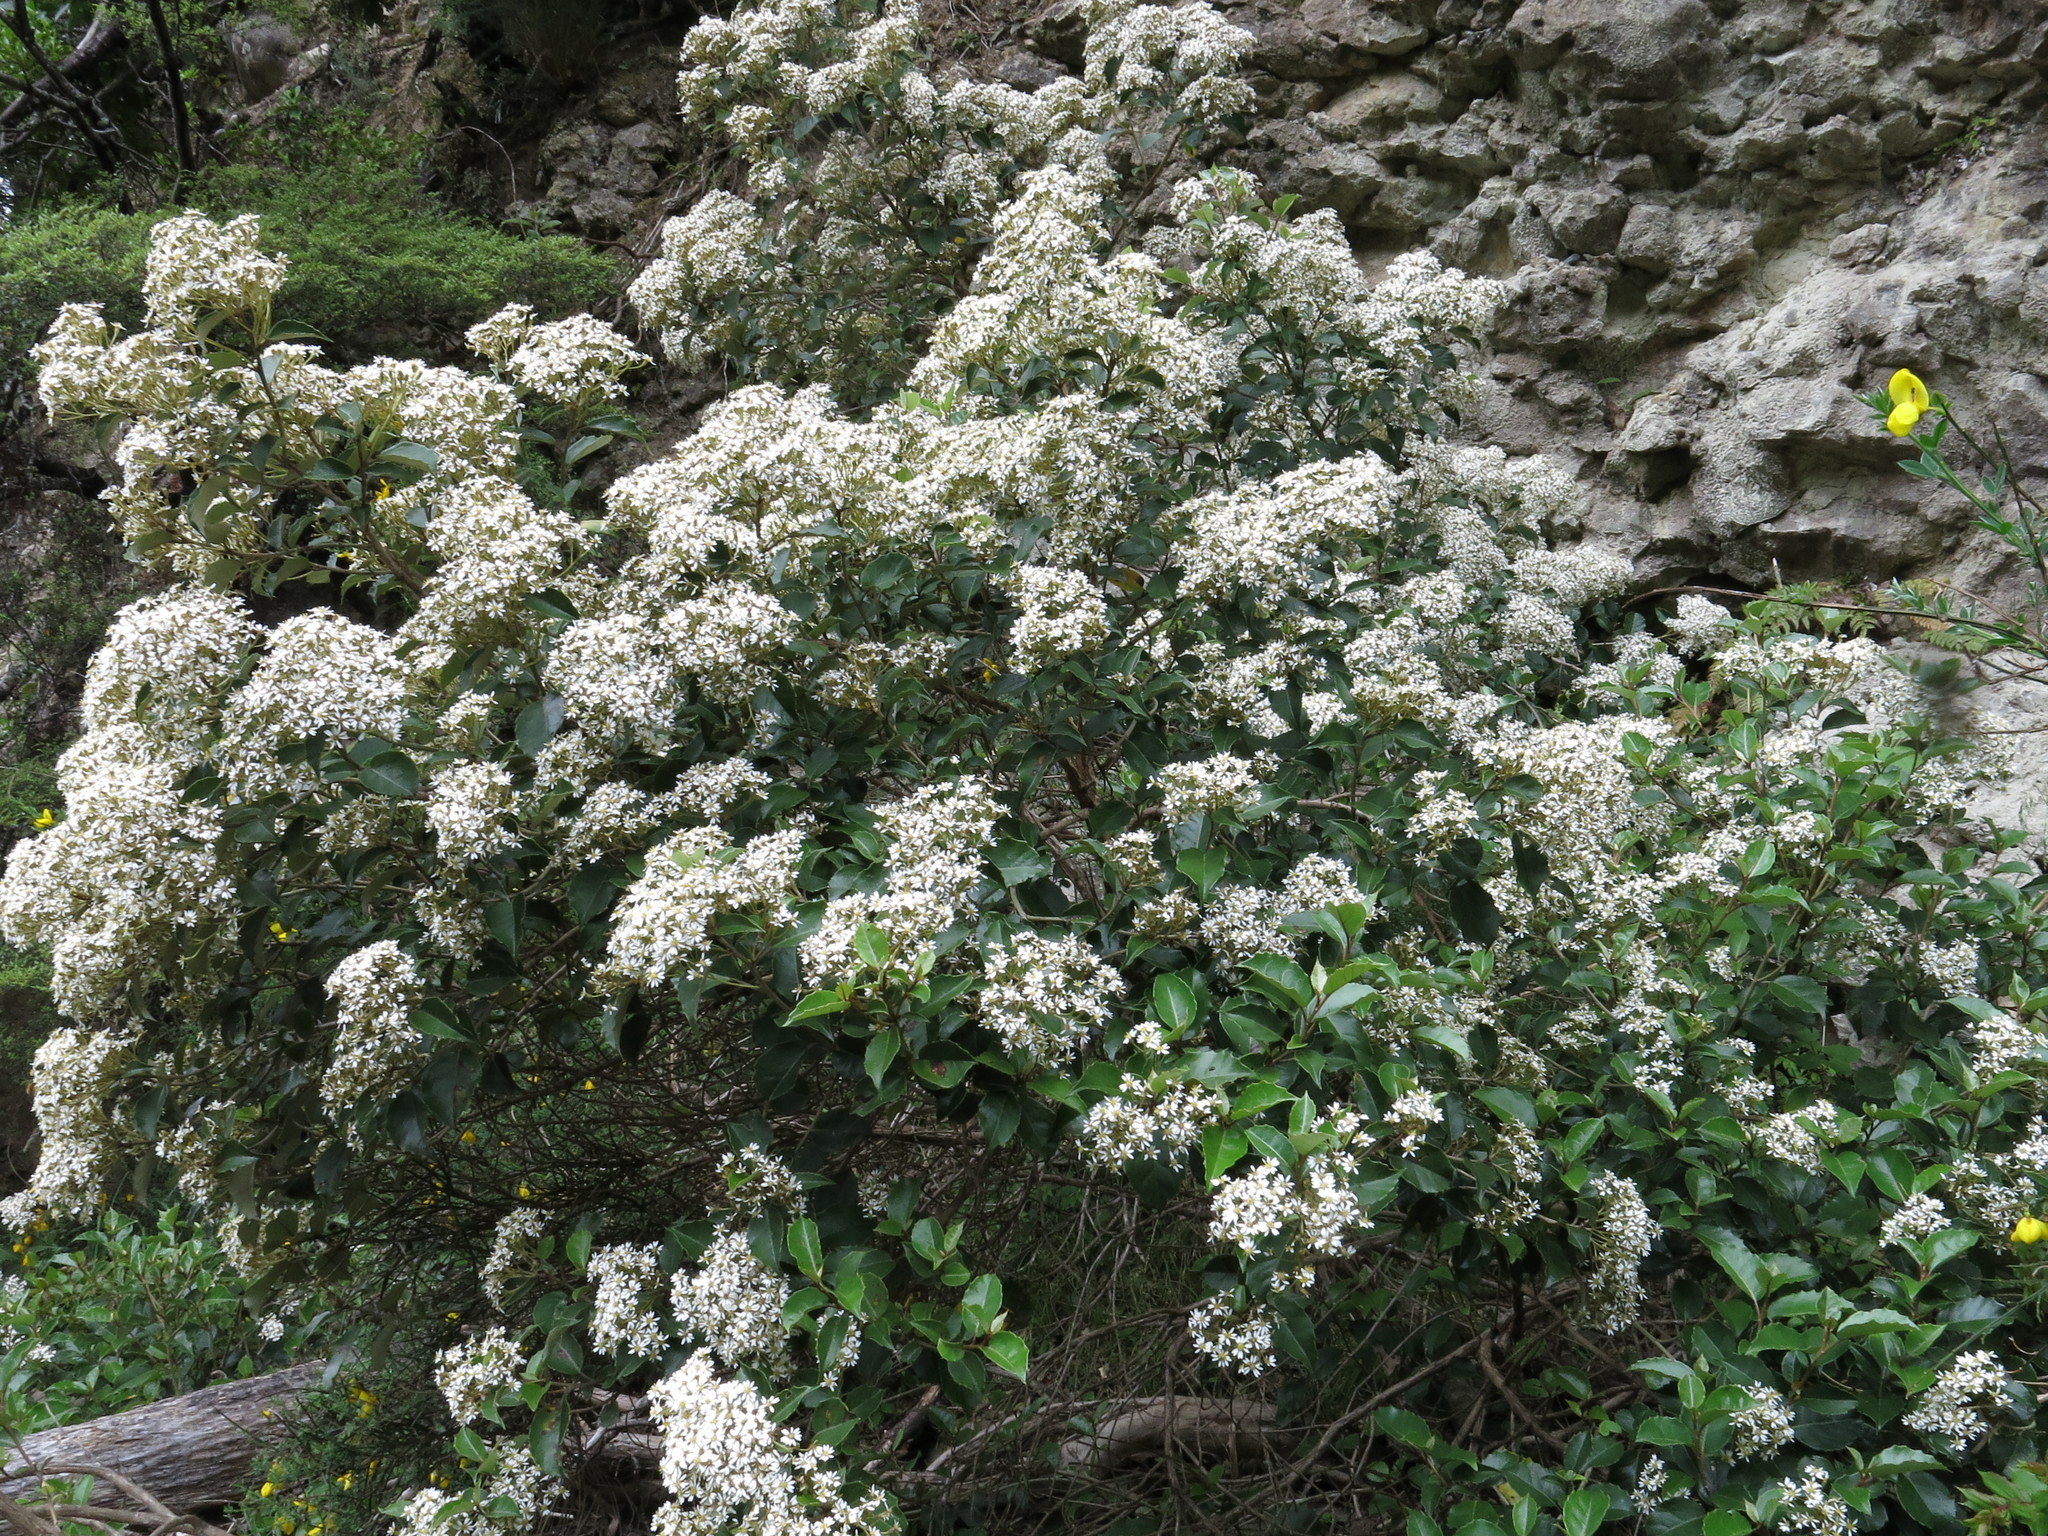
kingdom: Plantae
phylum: Tracheophyta
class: Magnoliopsida
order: Asterales
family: Asteraceae
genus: Olearia
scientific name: Olearia arborescens
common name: Glossy tree daisy
